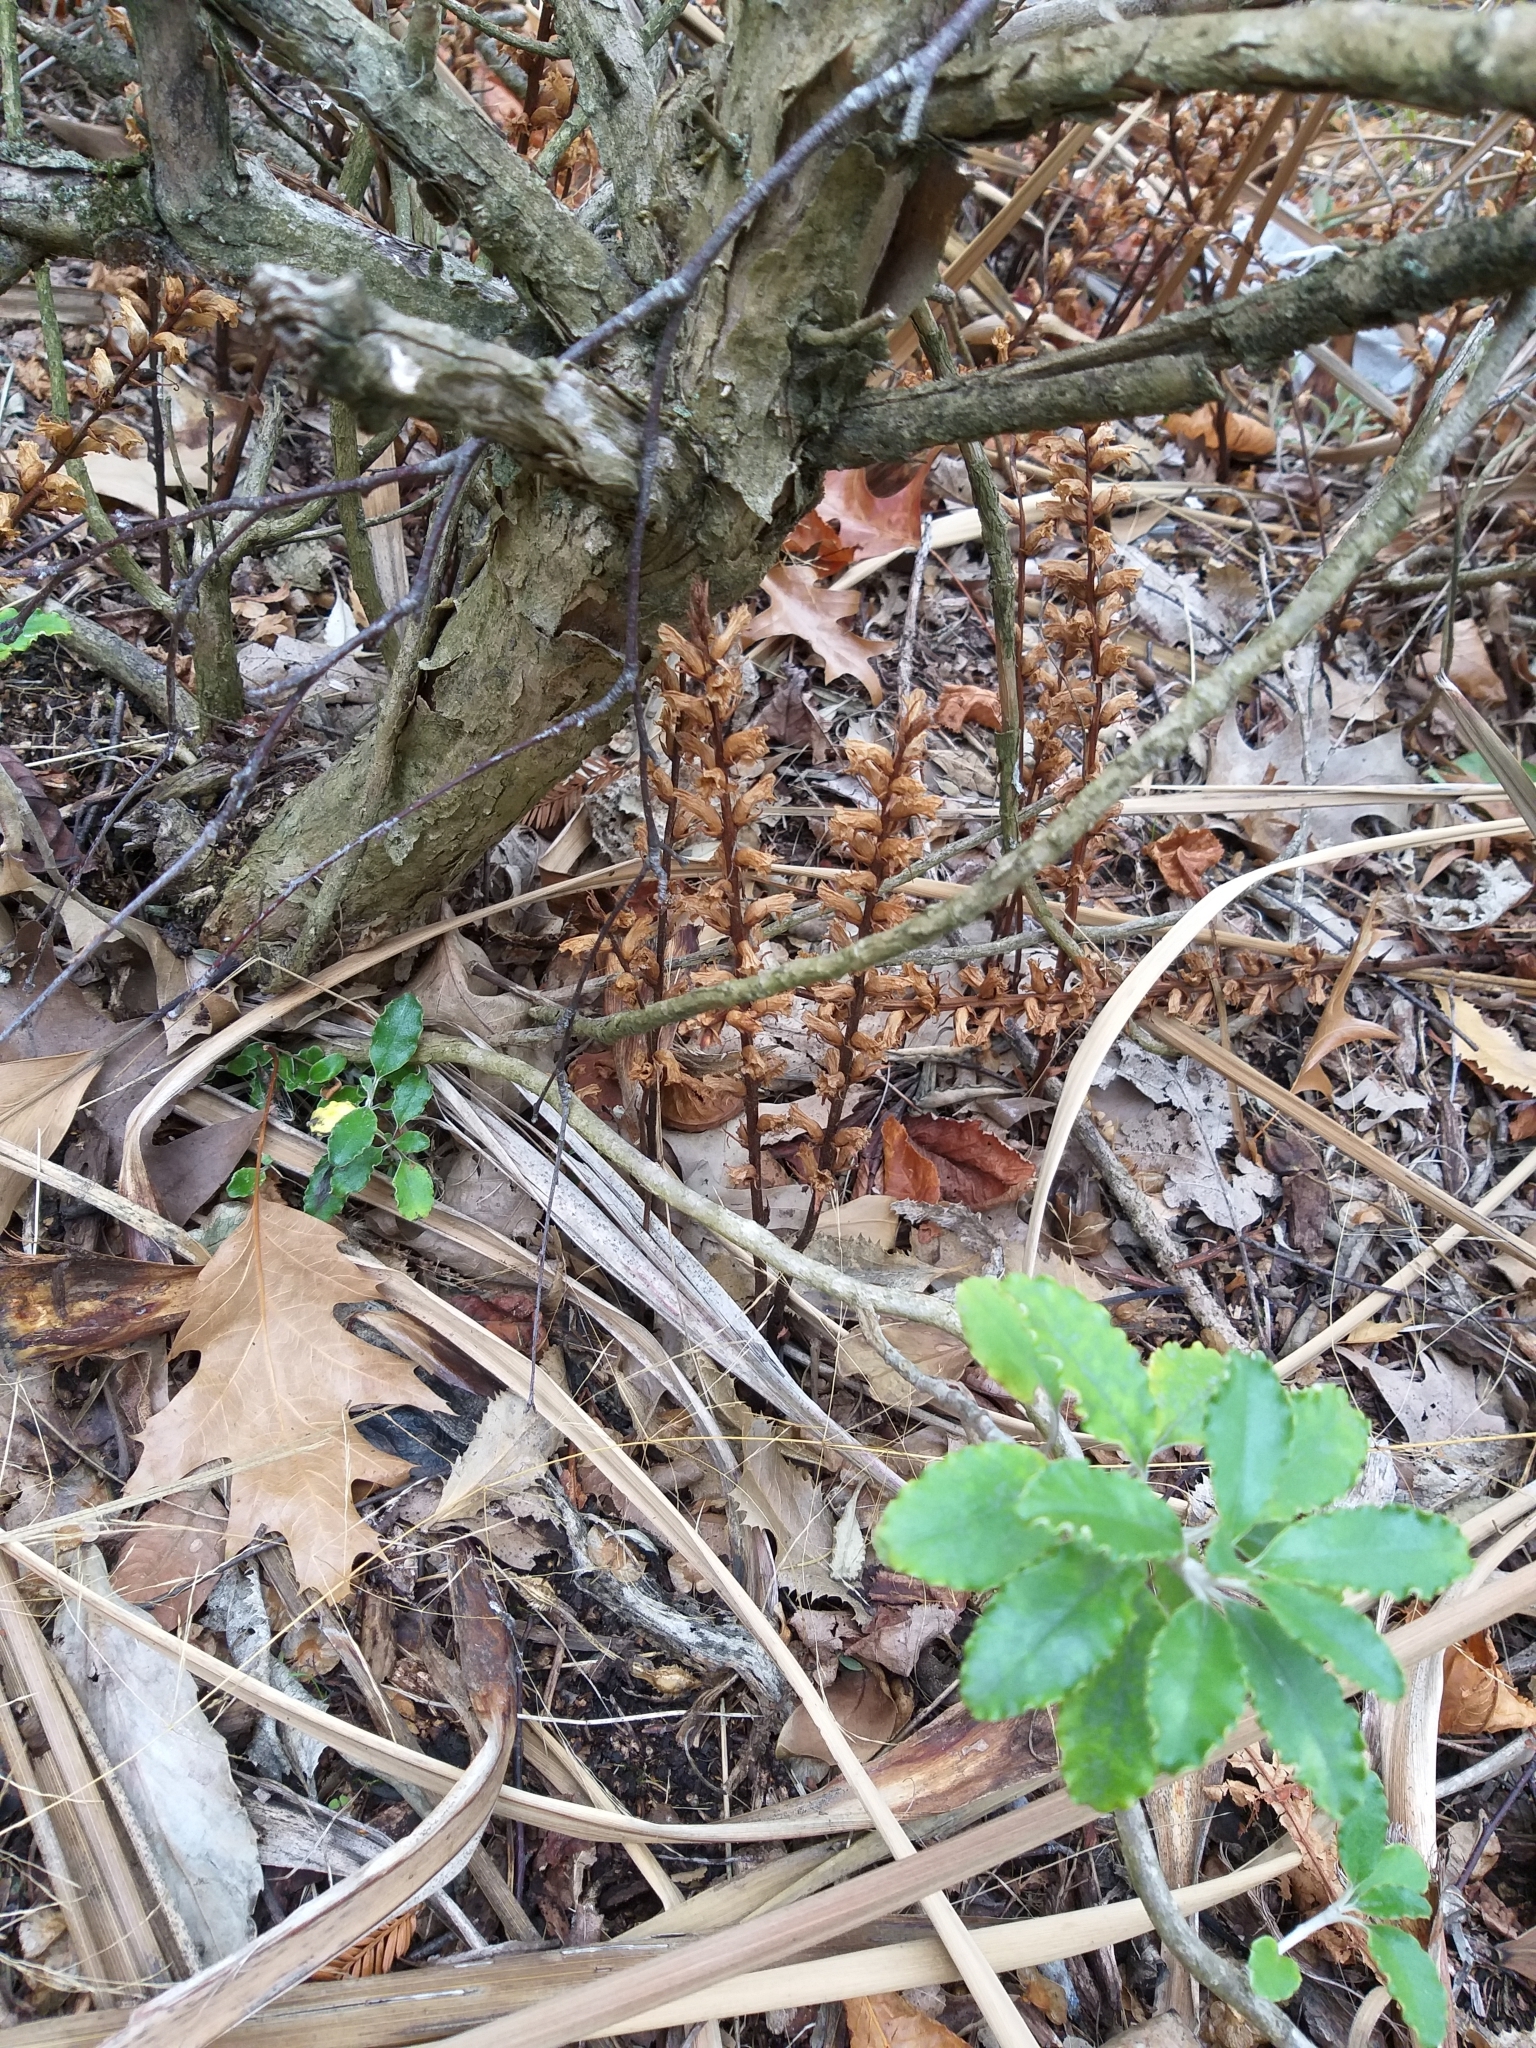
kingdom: Plantae
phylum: Tracheophyta
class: Magnoliopsida
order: Lamiales
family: Orobanchaceae
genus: Orobanche
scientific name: Orobanche minor
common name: Common broomrape
